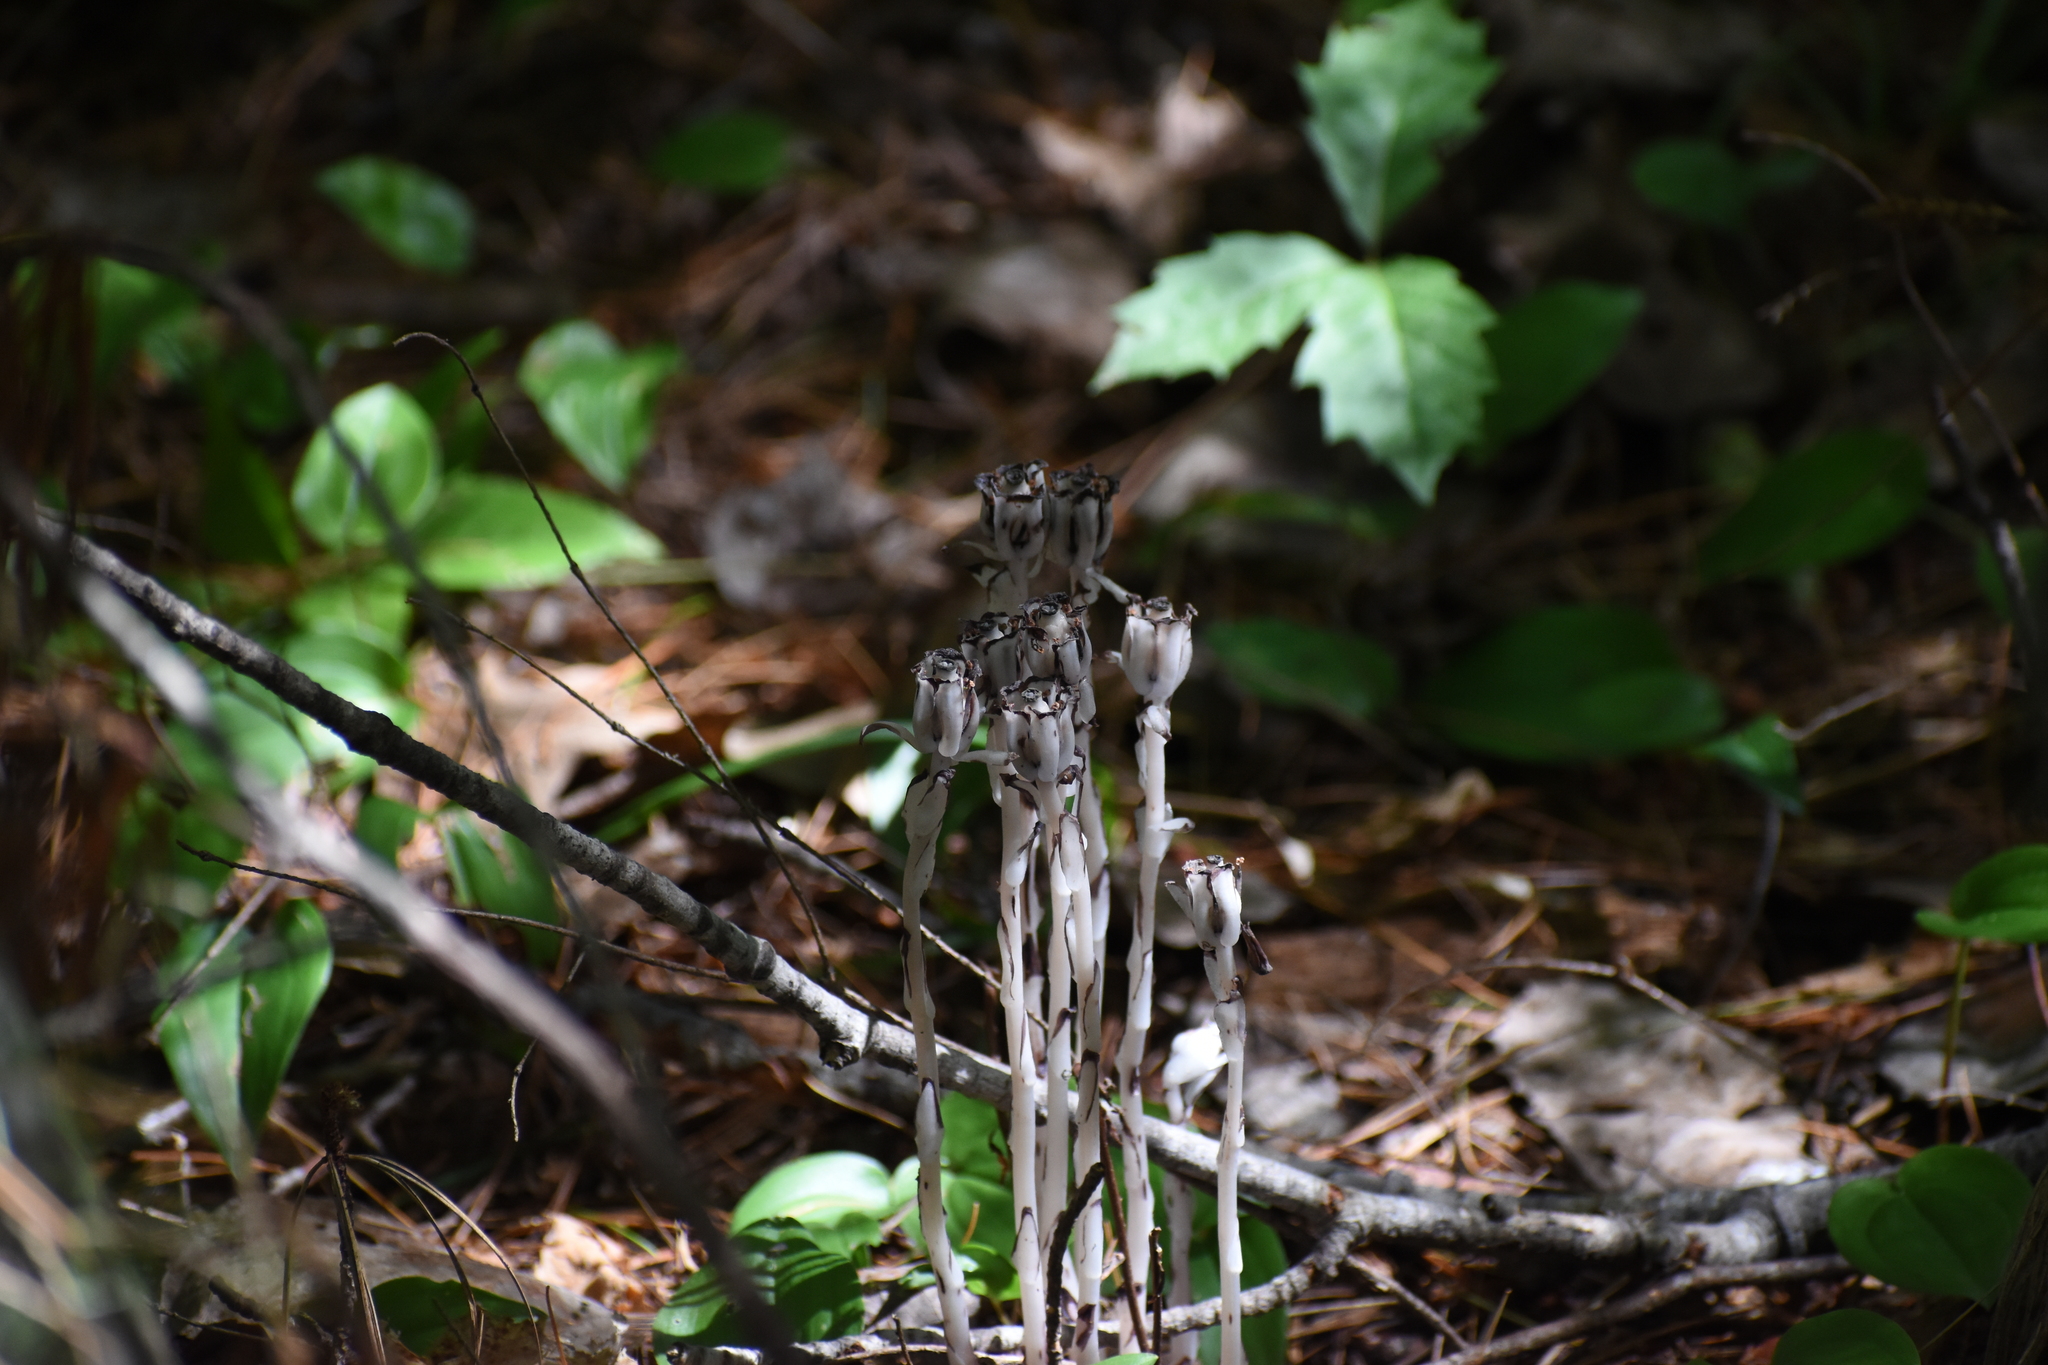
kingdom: Plantae
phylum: Tracheophyta
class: Magnoliopsida
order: Ericales
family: Ericaceae
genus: Monotropa
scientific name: Monotropa uniflora
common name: Convulsion root
